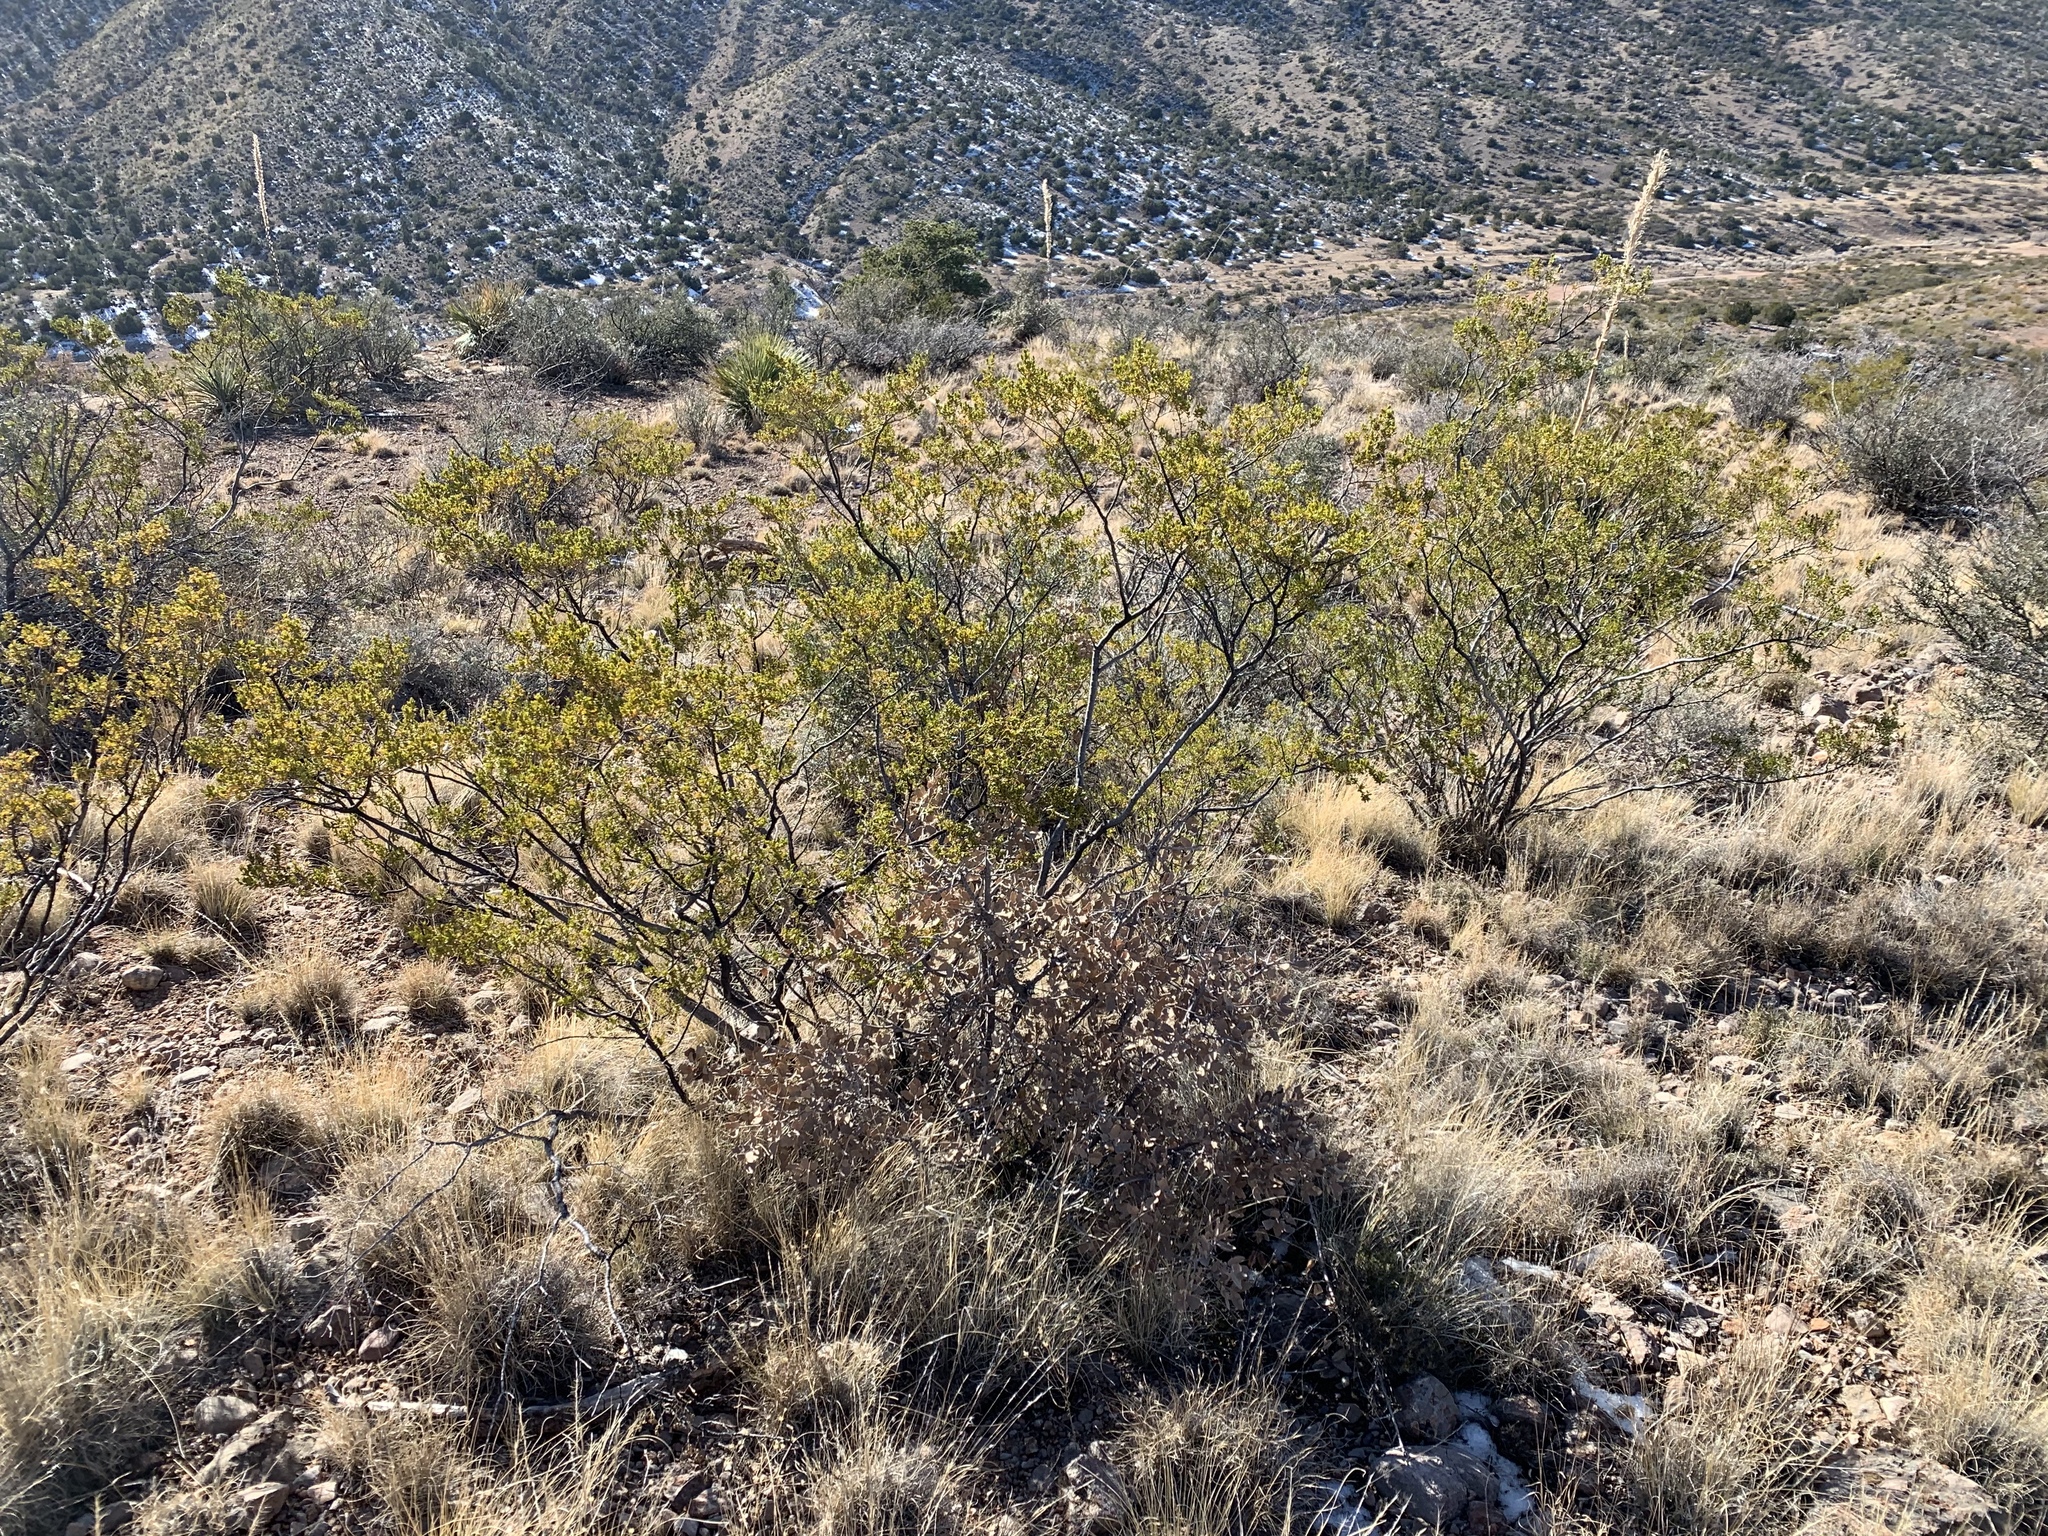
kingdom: Plantae
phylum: Tracheophyta
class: Magnoliopsida
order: Zygophyllales
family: Zygophyllaceae
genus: Larrea
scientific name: Larrea tridentata
